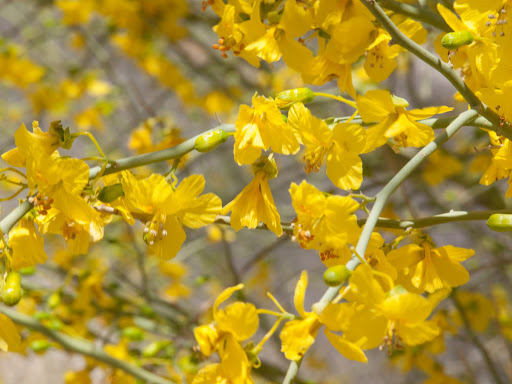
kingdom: Plantae
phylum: Tracheophyta
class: Magnoliopsida
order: Fabales
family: Fabaceae
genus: Parkinsonia
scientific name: Parkinsonia florida
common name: Blue paloverde
